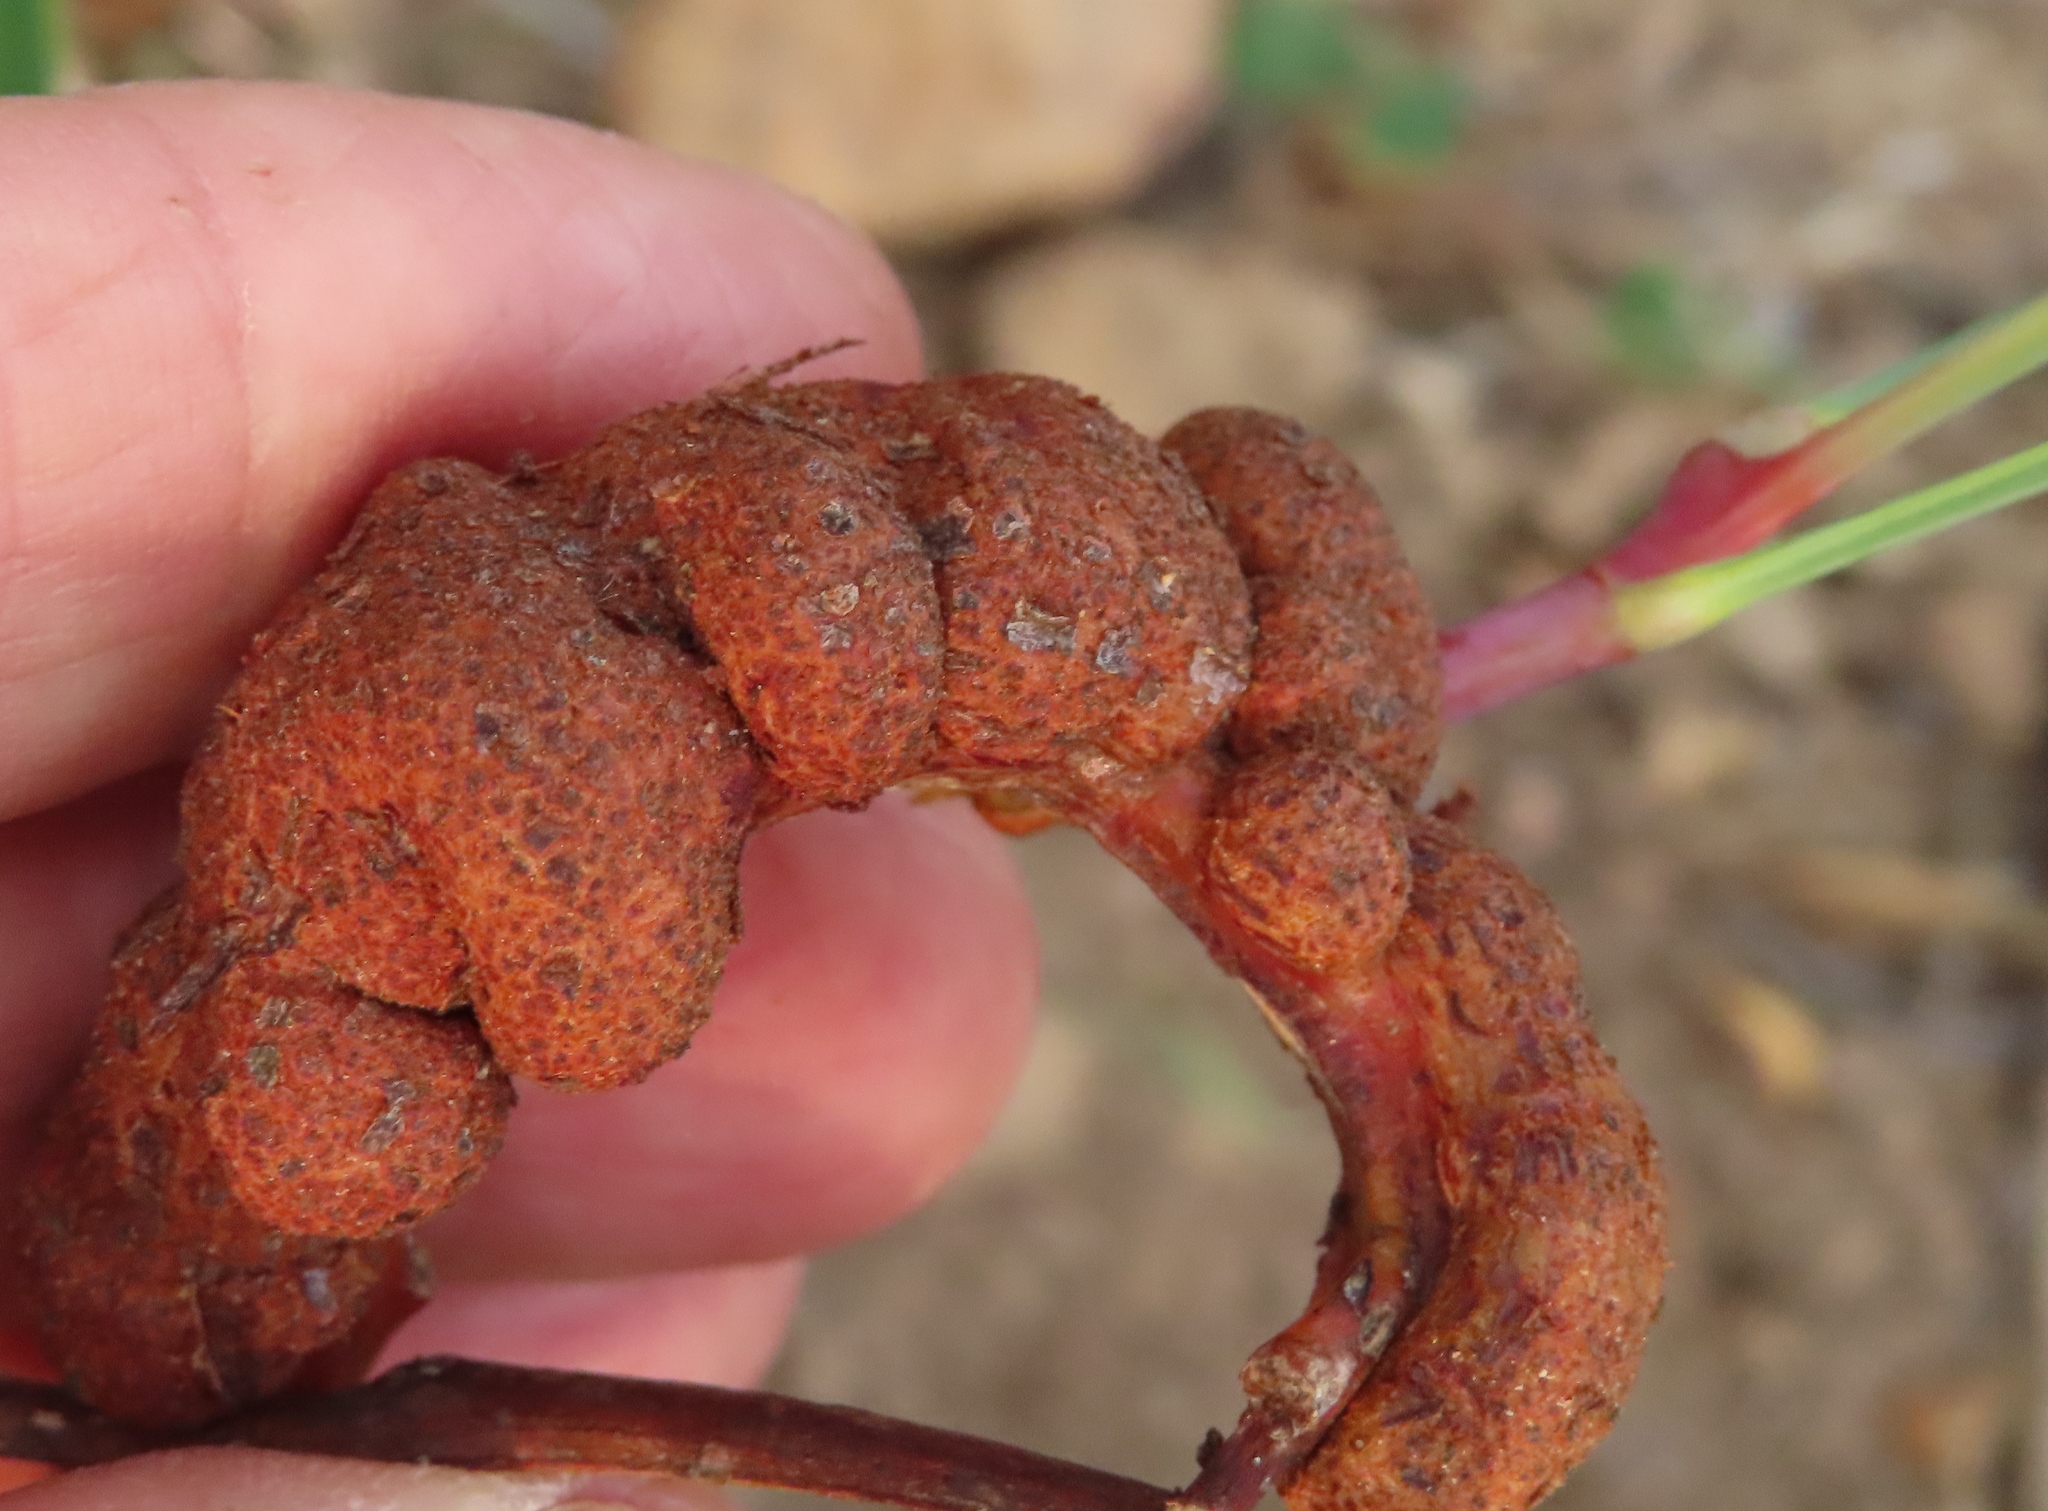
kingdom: Fungi
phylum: Basidiomycota
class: Pucciniomycetes
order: Pucciniales
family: Uromycladiaceae
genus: Uromycladium
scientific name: Uromycladium morrisii
